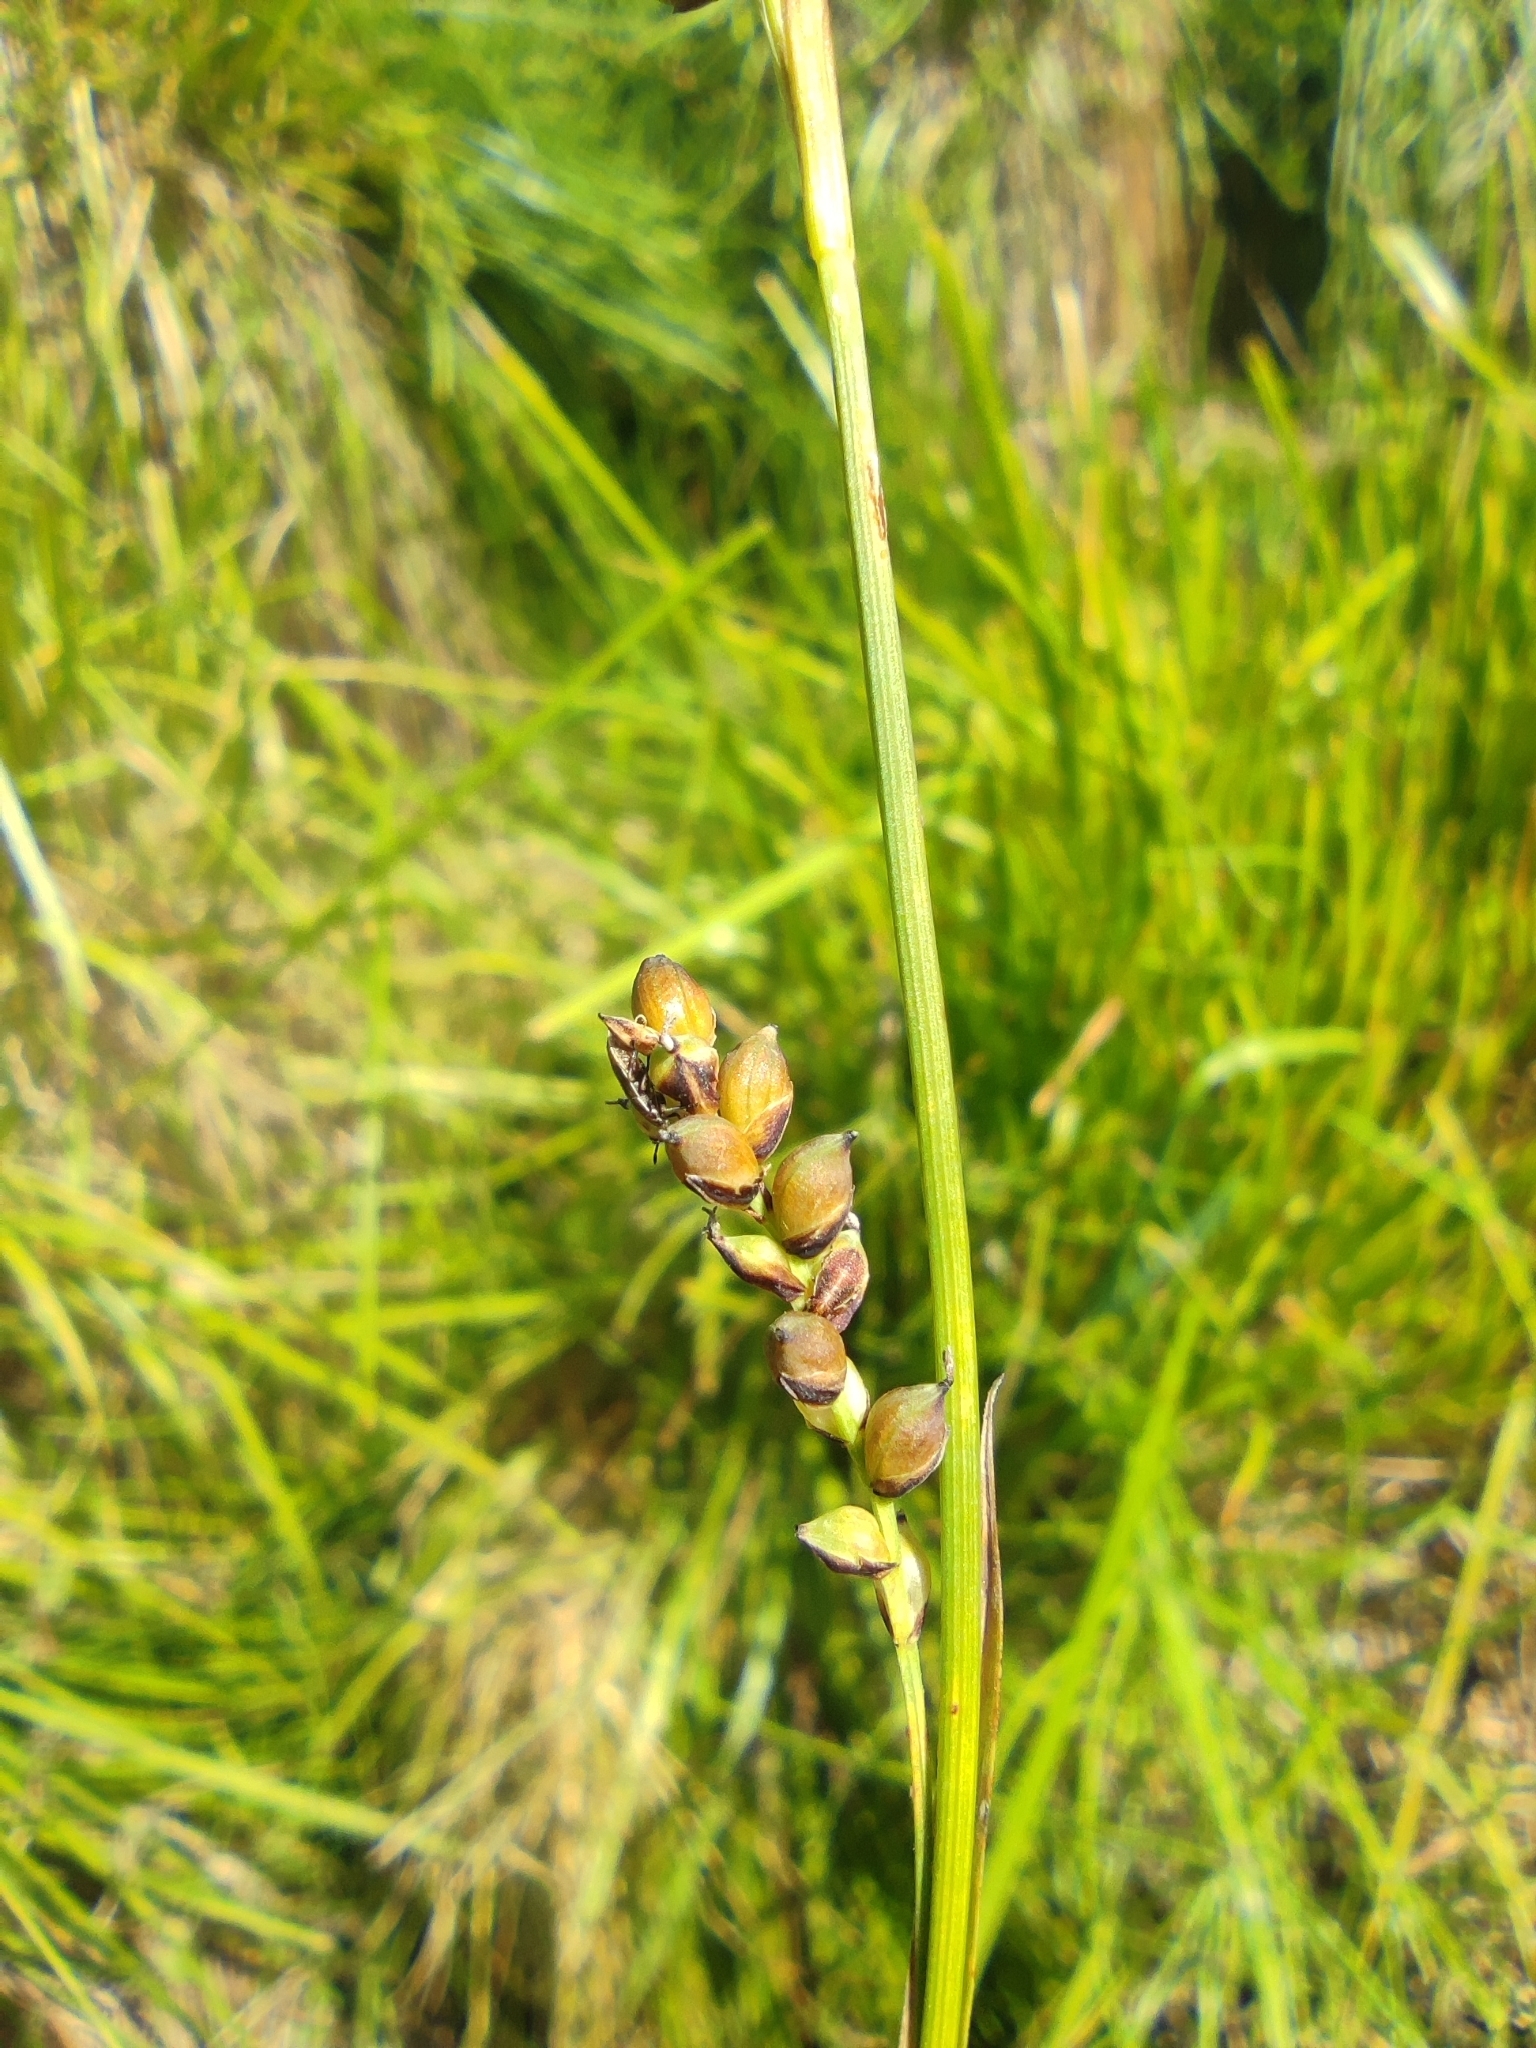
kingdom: Plantae
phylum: Tracheophyta
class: Liliopsida
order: Poales
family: Cyperaceae
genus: Carex
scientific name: Carex panicea
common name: Carnation sedge
